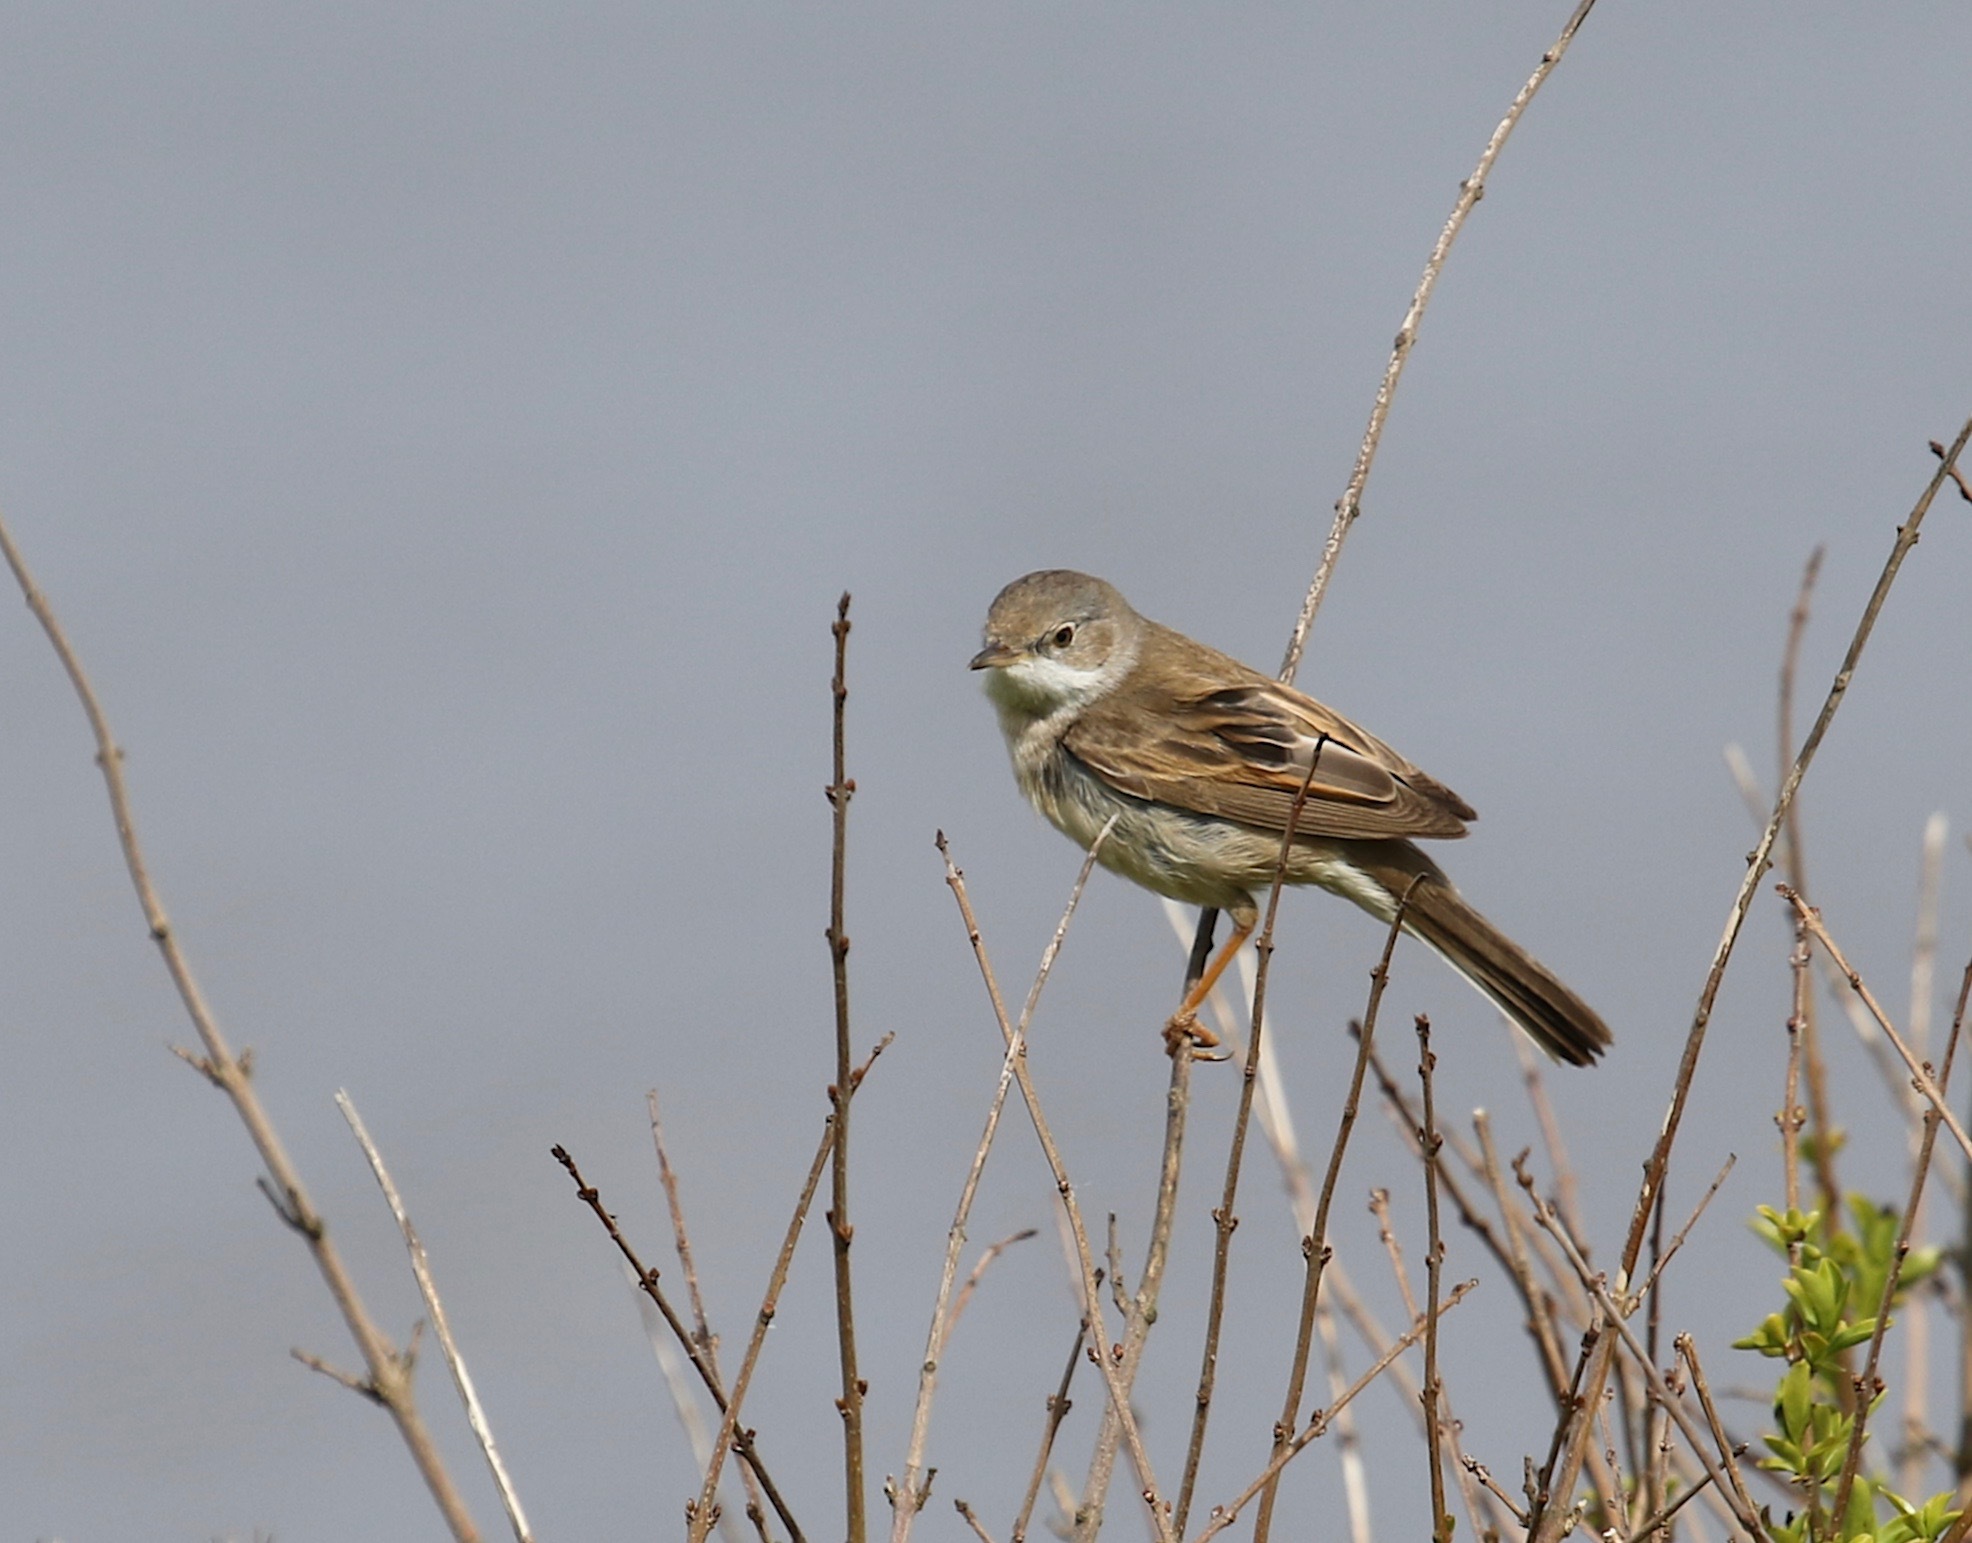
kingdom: Animalia
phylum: Chordata
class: Aves
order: Passeriformes
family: Sylviidae
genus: Sylvia
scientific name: Sylvia communis
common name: Common whitethroat
